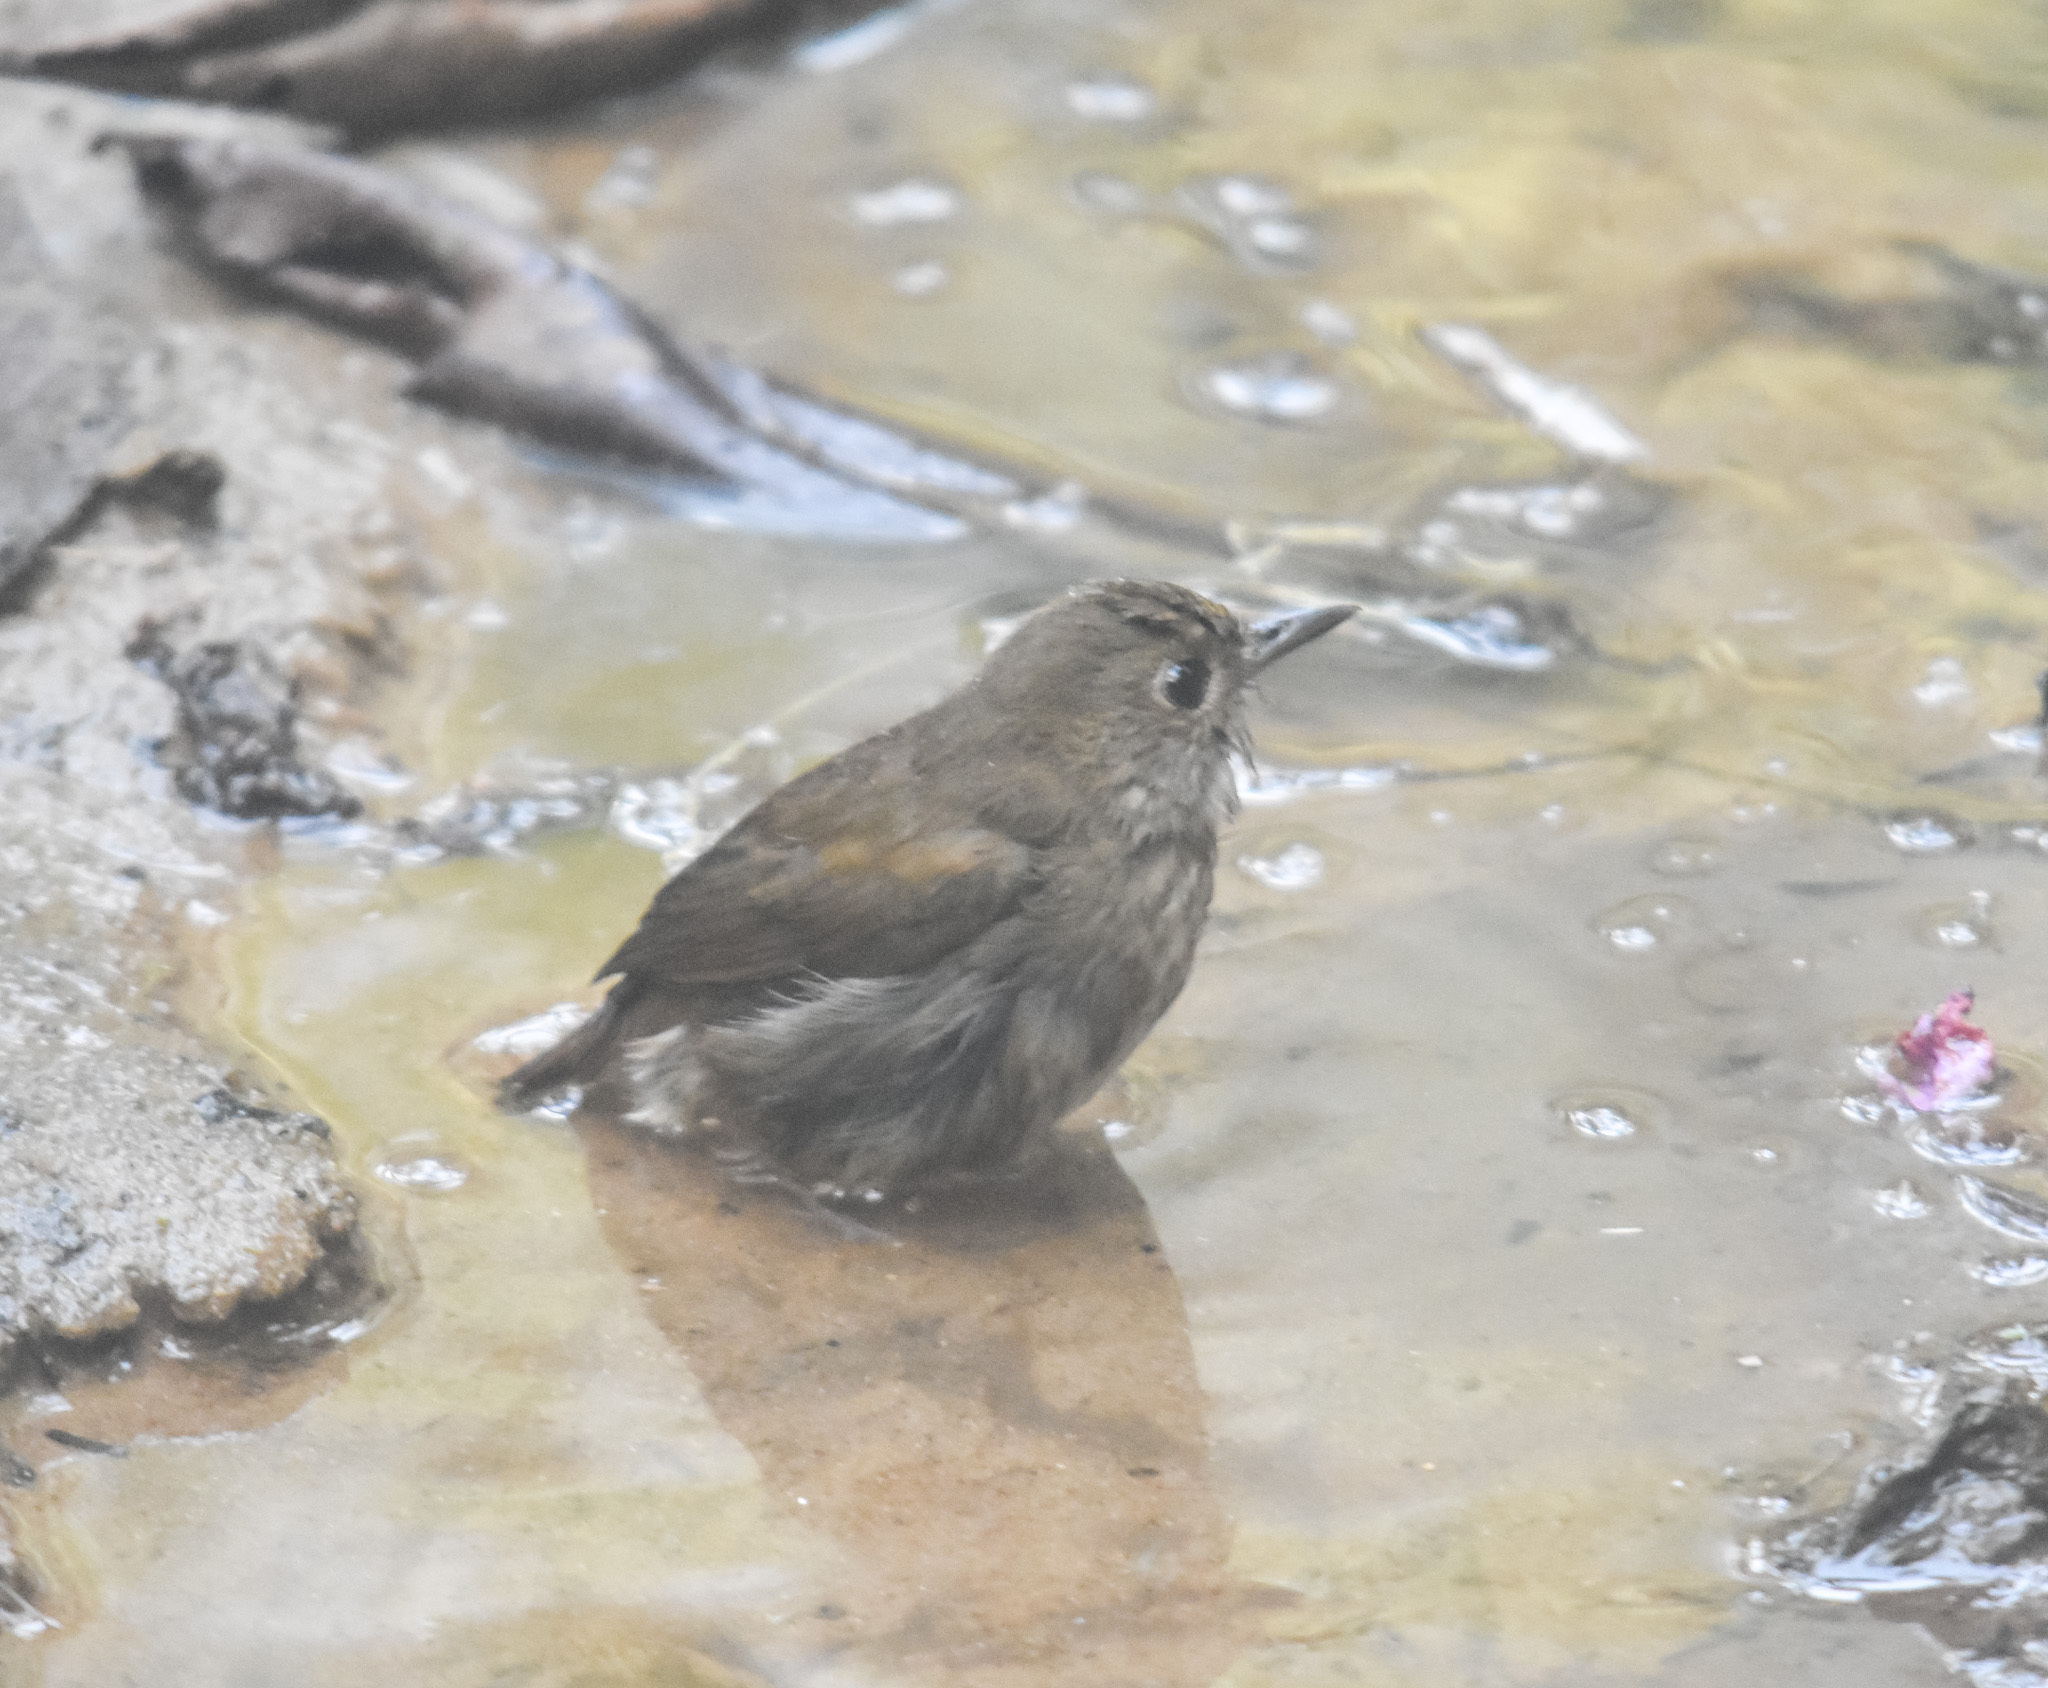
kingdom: Animalia
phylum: Chordata
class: Aves
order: Passeriformes
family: Muscicapidae
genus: Brachypteryx
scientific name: Brachypteryx leucophris
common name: Lesser shortwing
